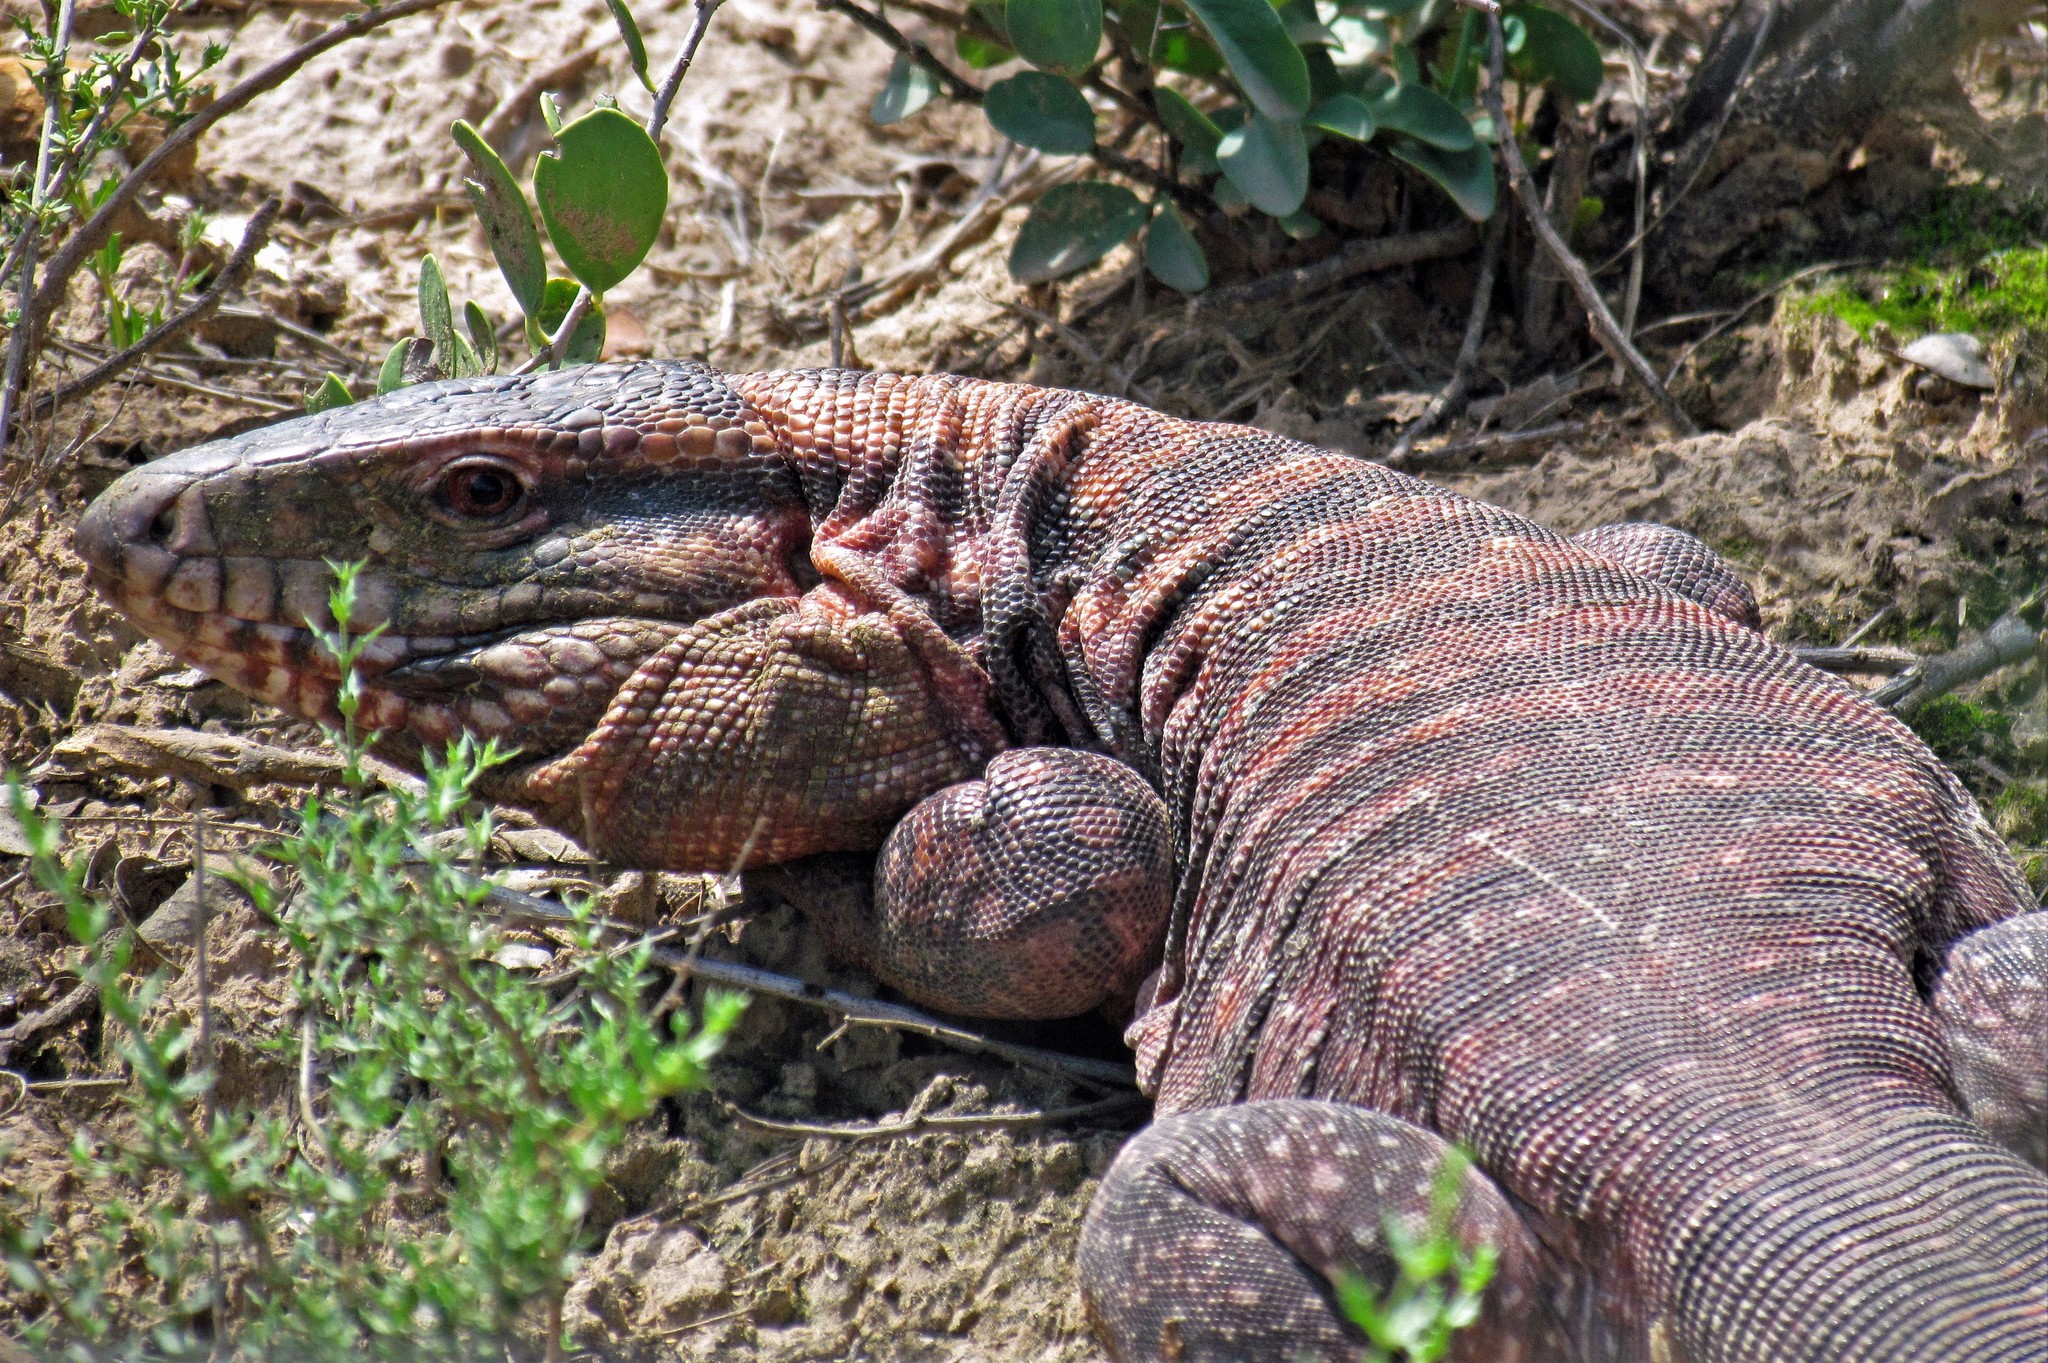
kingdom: Animalia
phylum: Chordata
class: Squamata
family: Teiidae
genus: Salvator
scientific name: Salvator rufescens
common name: Red tegu
